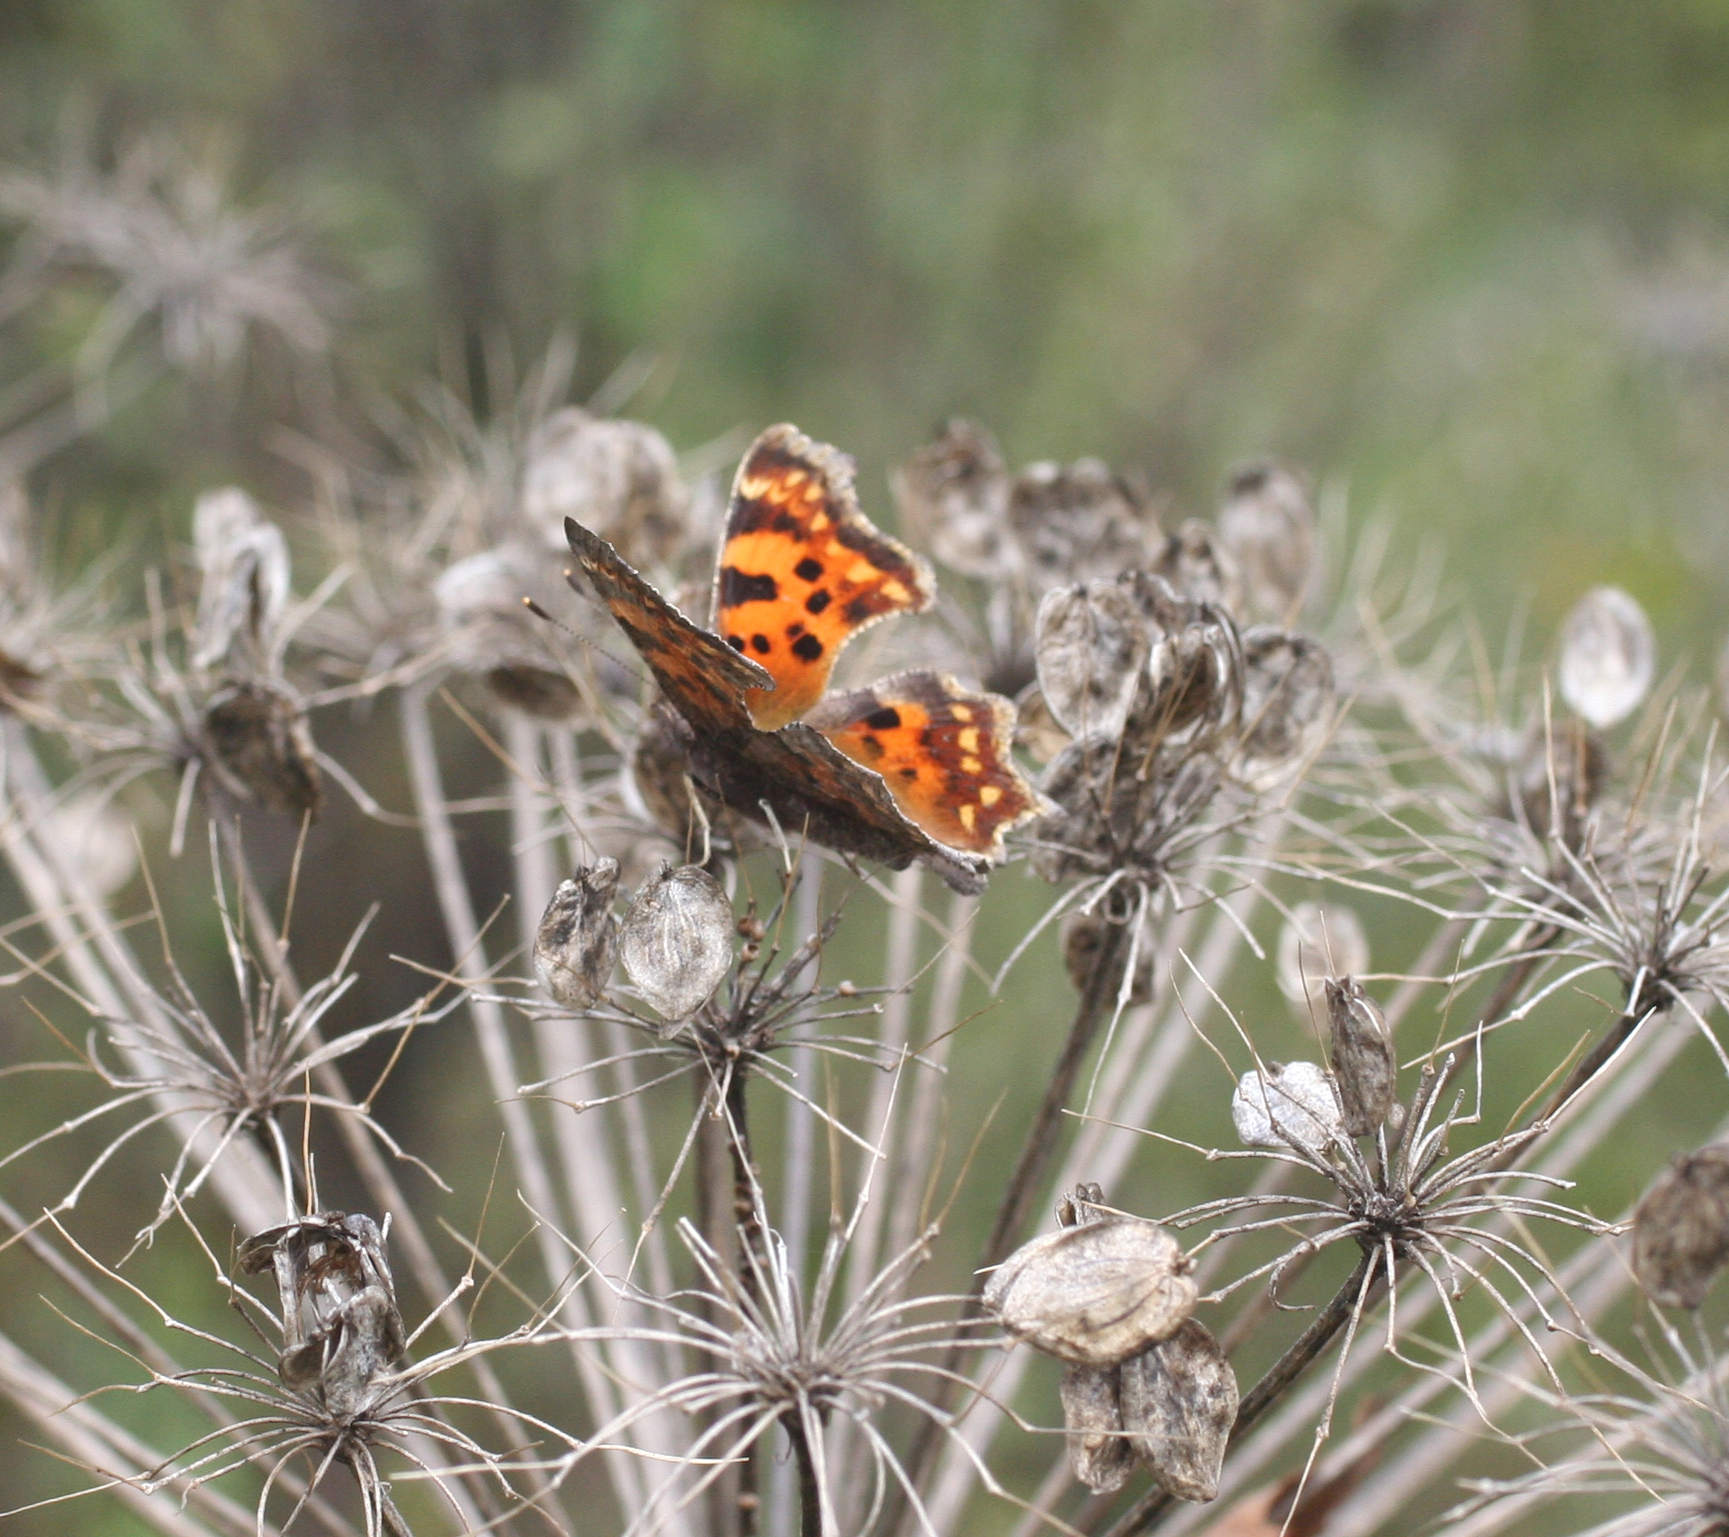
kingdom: Animalia
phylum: Arthropoda
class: Insecta
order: Lepidoptera
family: Nymphalidae
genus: Polygonia
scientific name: Polygonia c-album
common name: Comma
